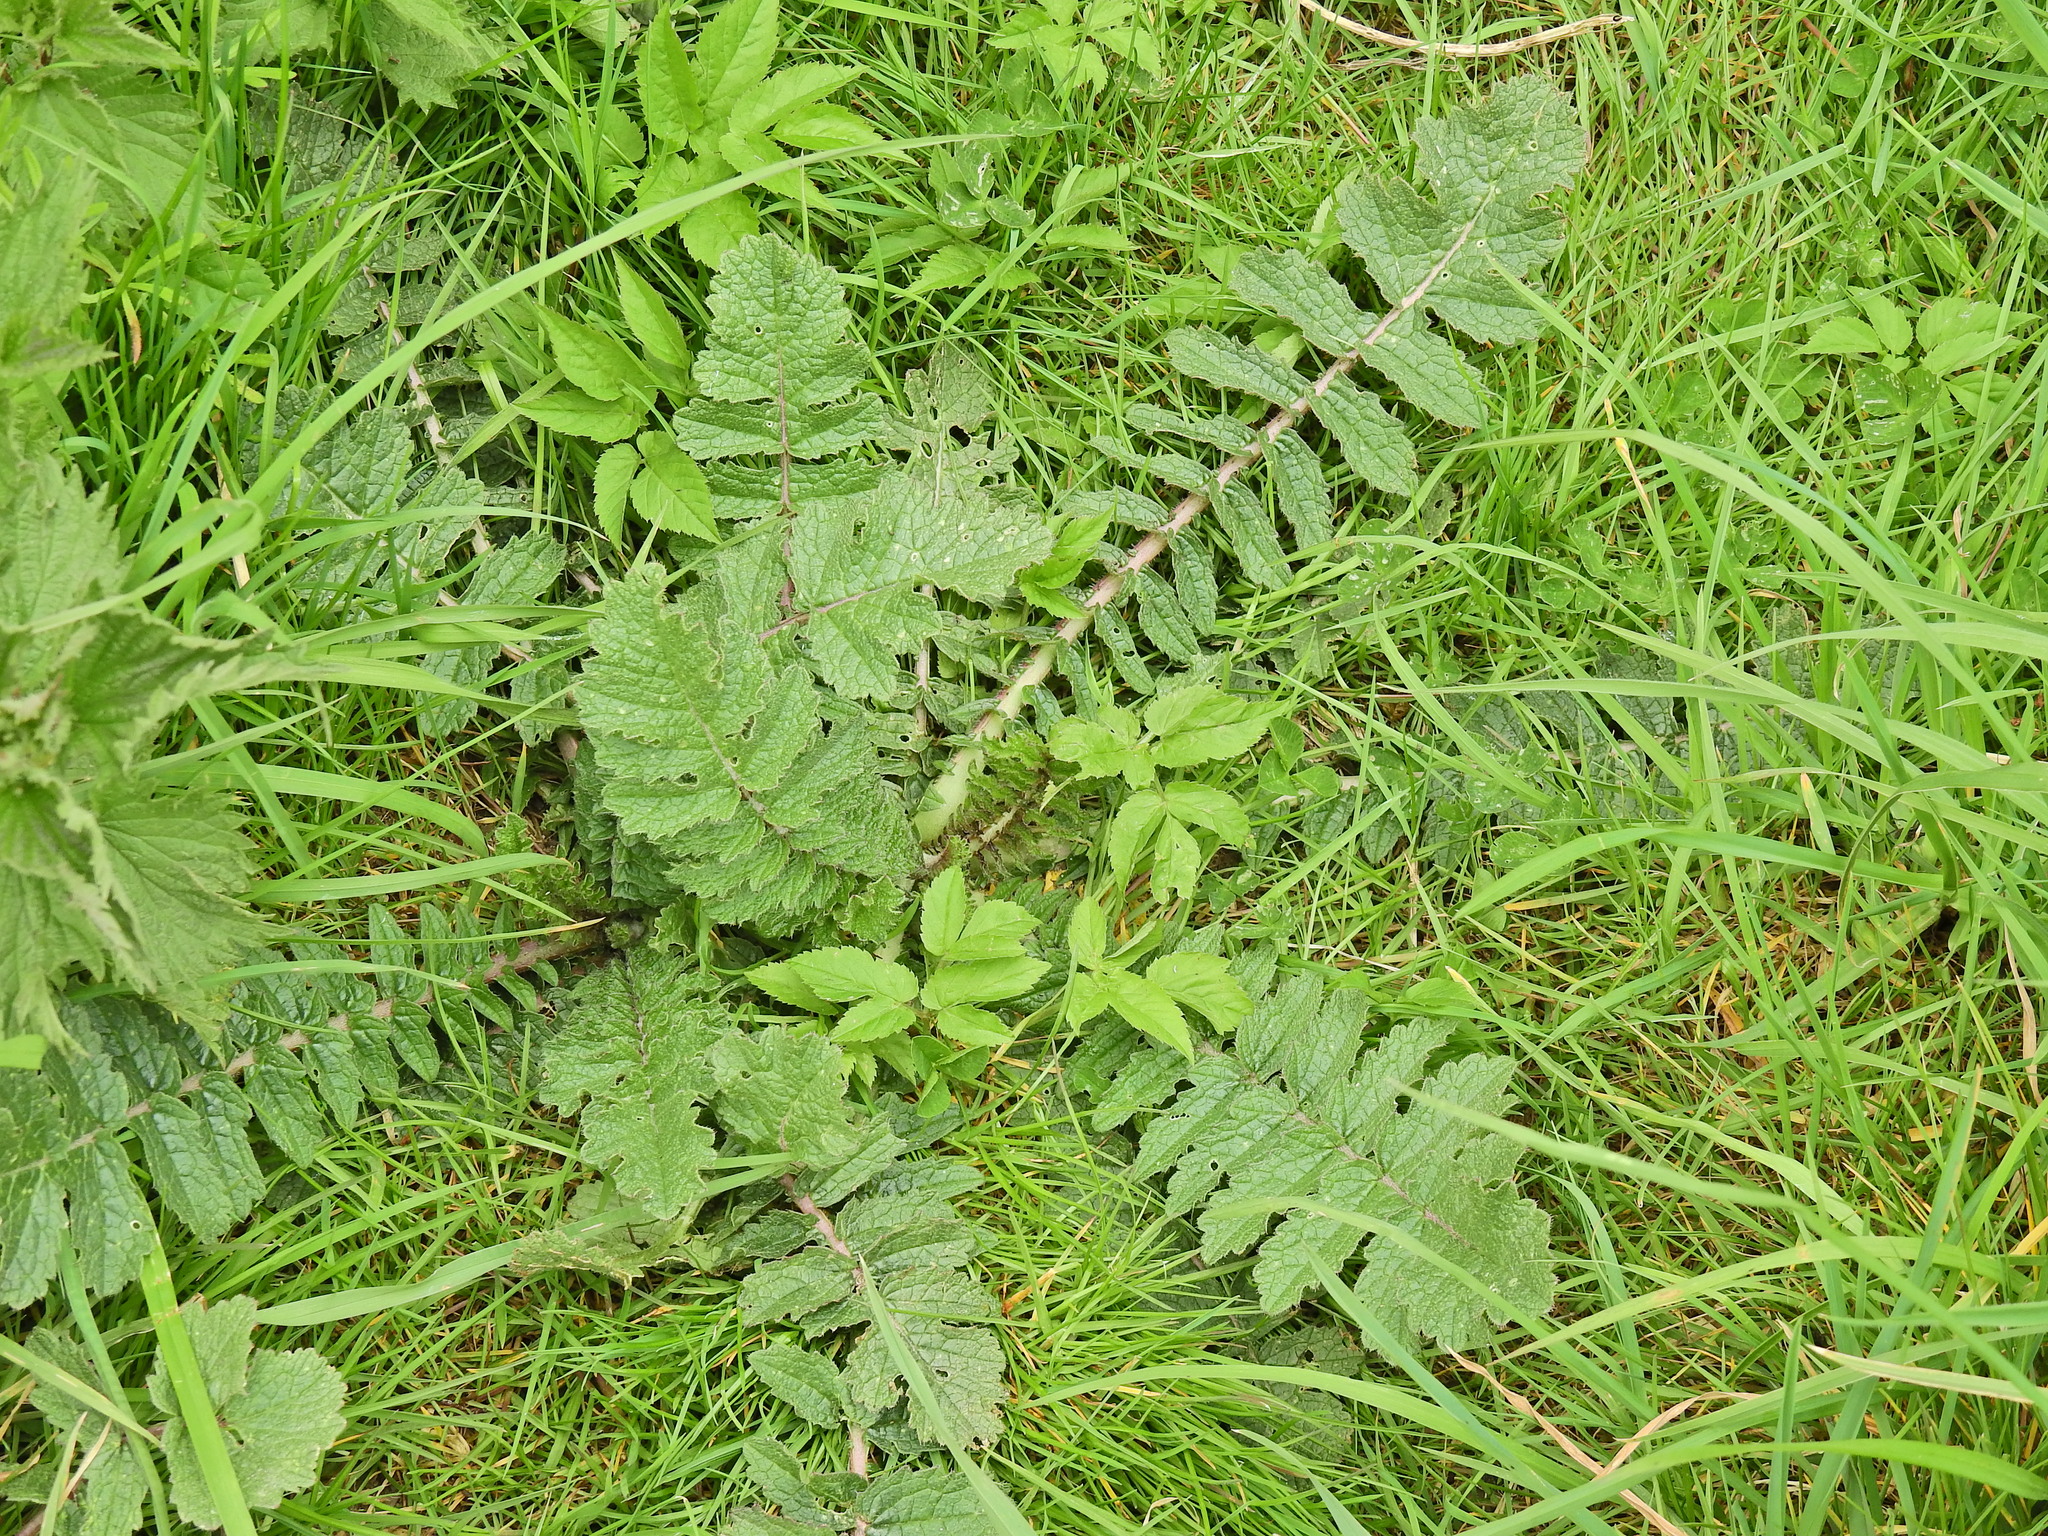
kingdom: Plantae
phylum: Tracheophyta
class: Magnoliopsida
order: Brassicales
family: Brassicaceae
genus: Raphanus
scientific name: Raphanus raphanistrum
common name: Wild radish
